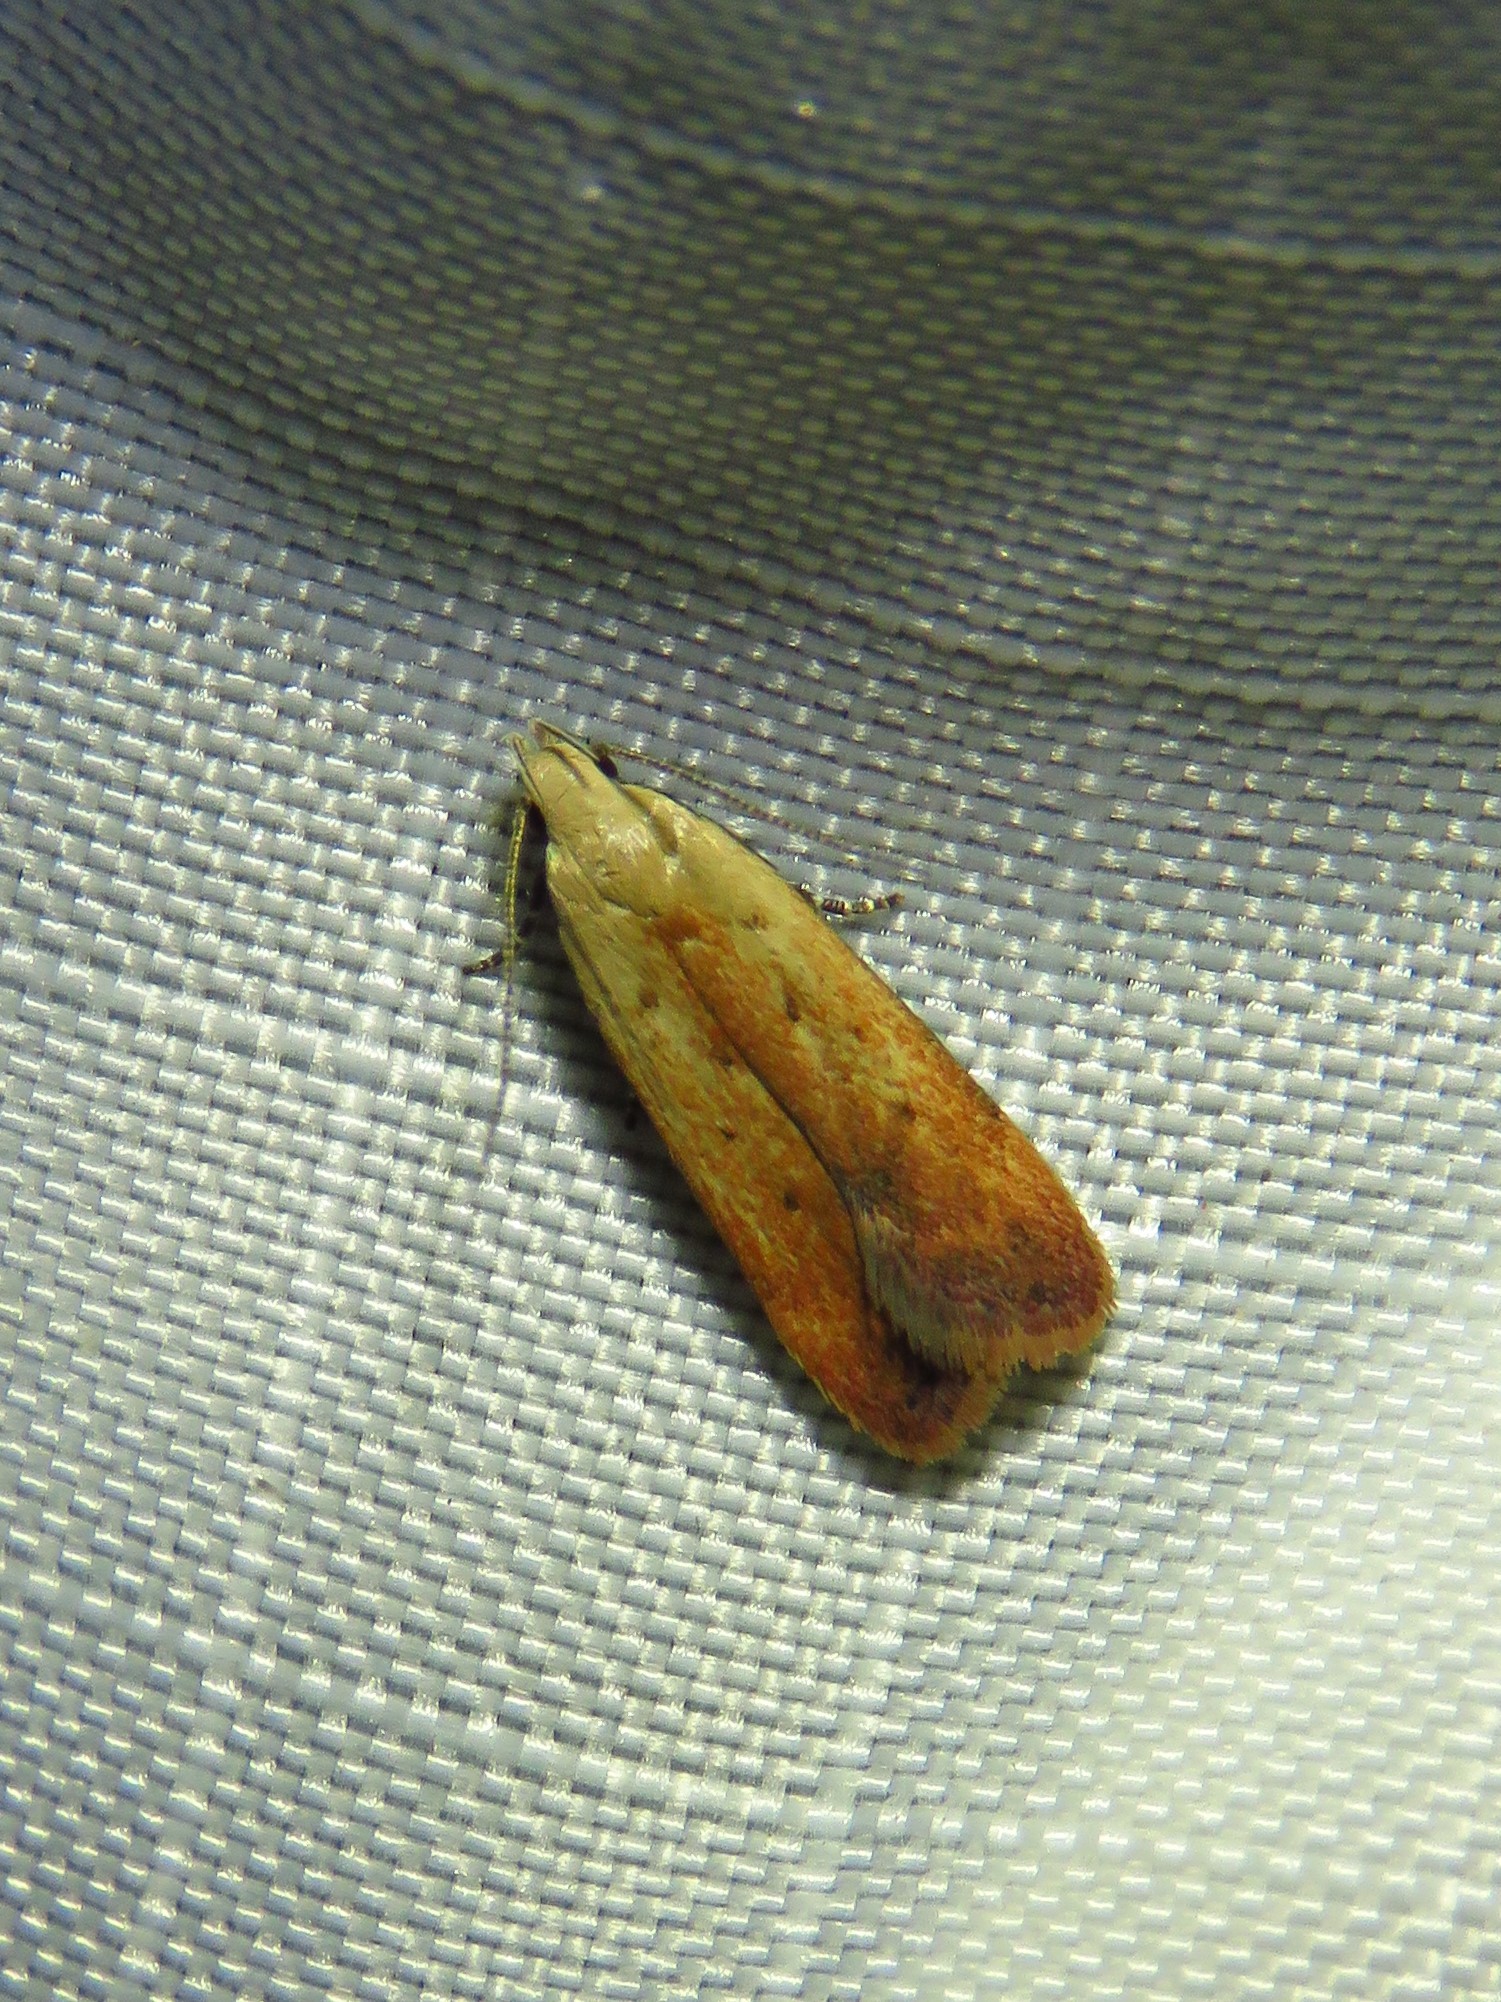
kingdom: Animalia
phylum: Arthropoda
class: Insecta
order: Lepidoptera
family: Gelechiidae
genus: Anacampsis
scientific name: Anacampsis fullonella
